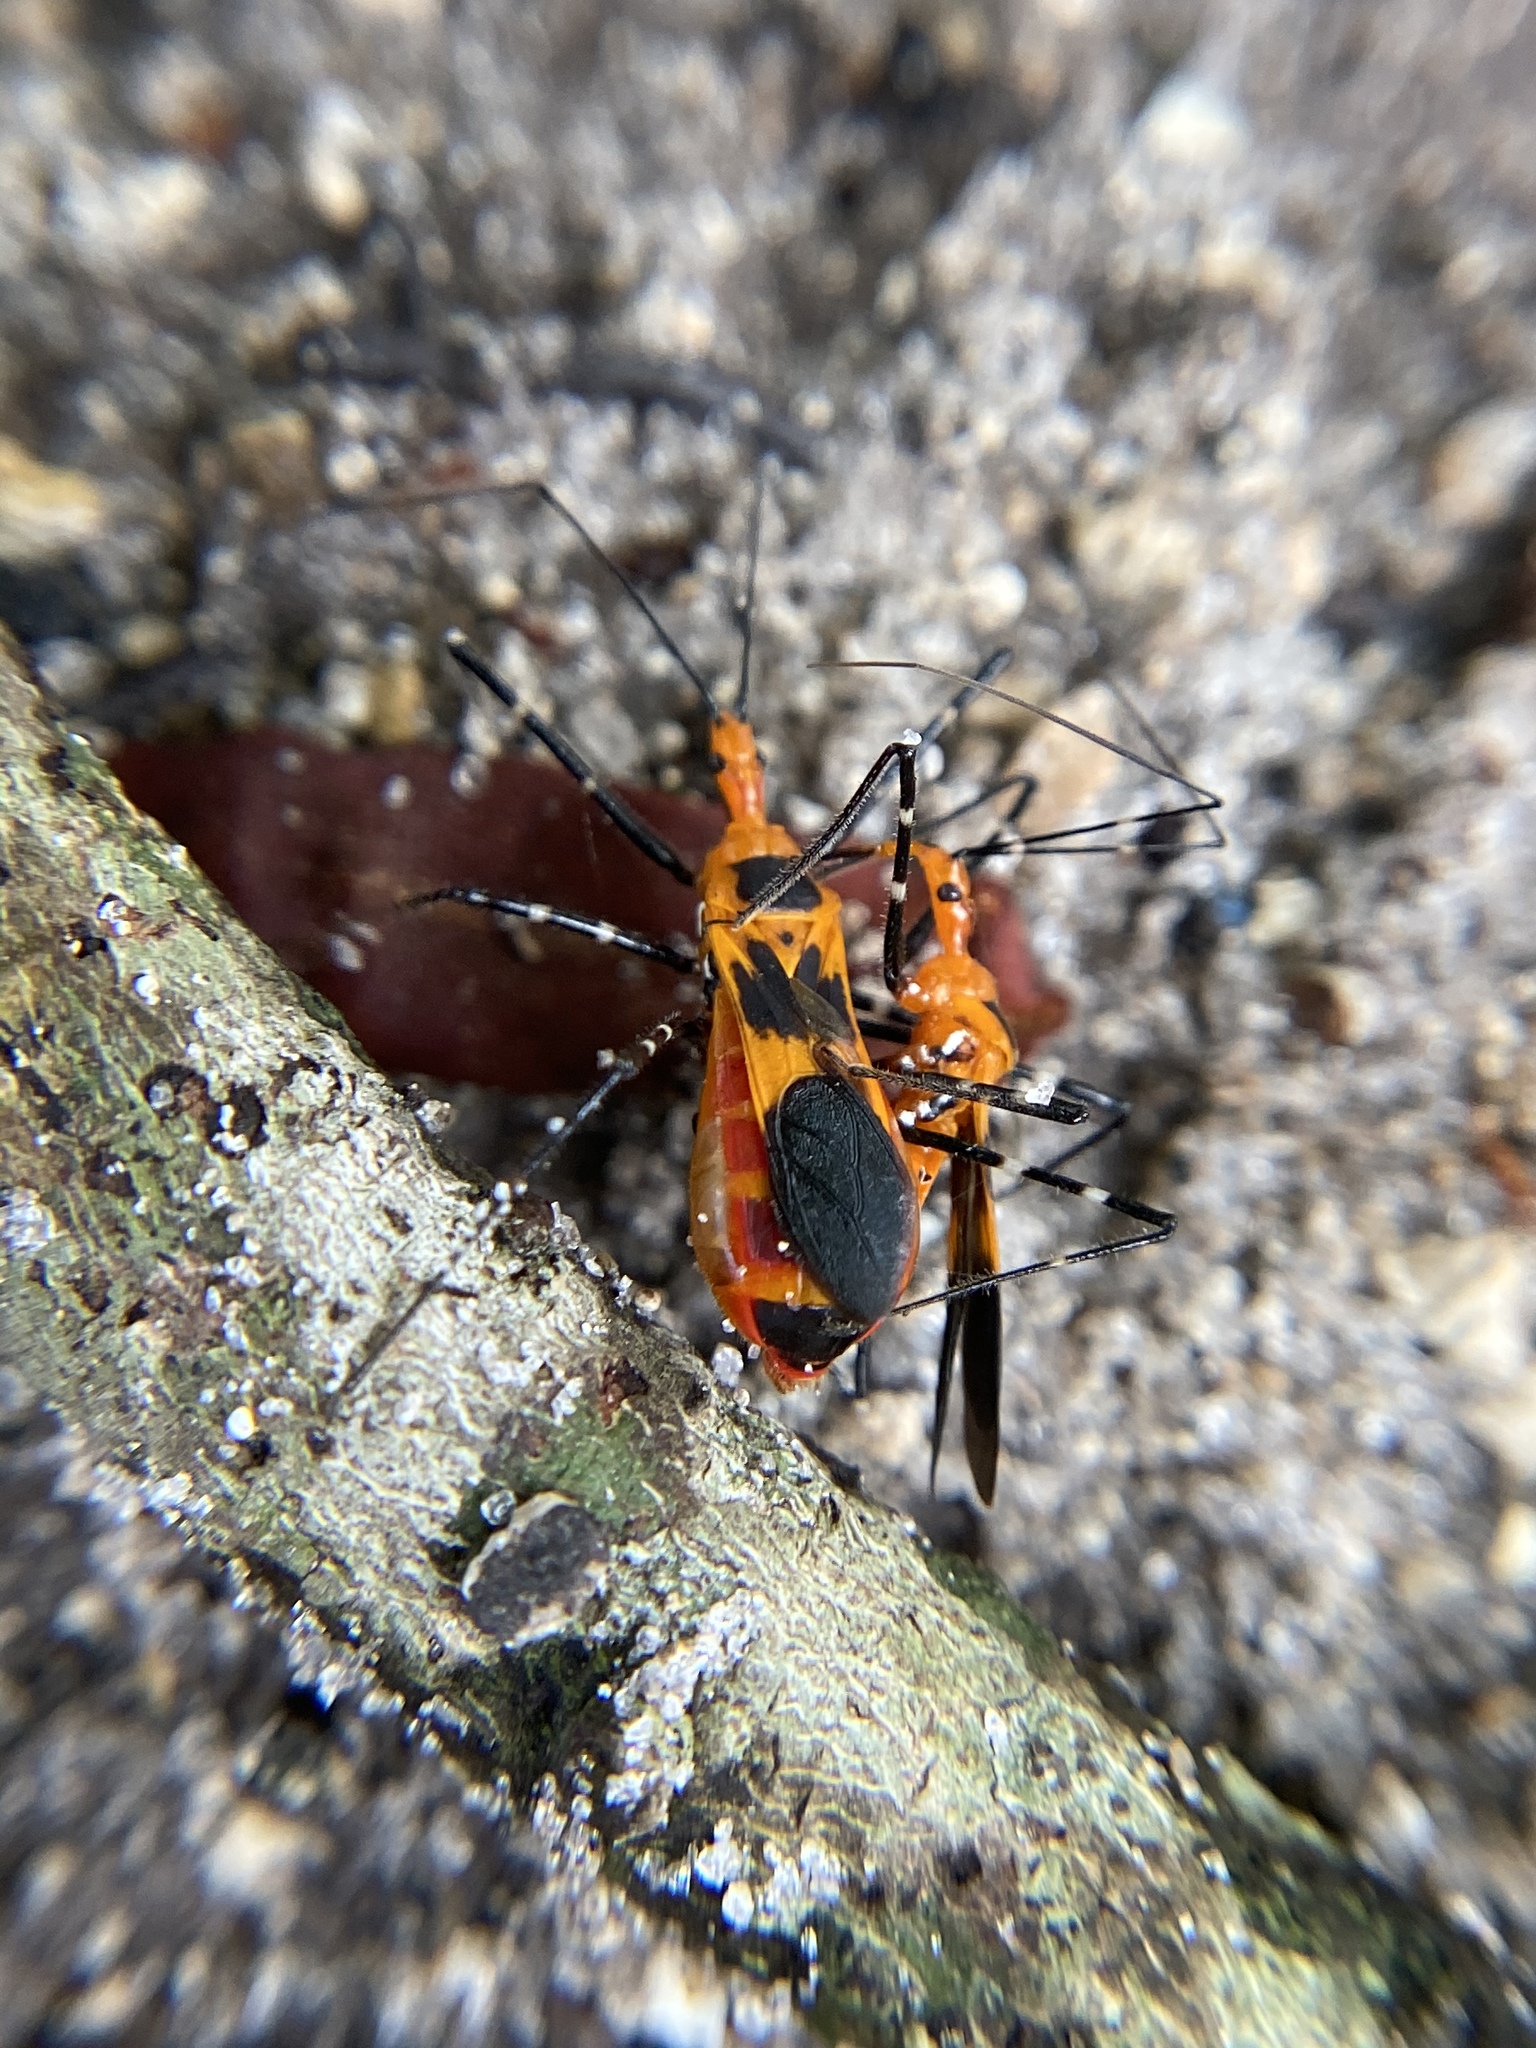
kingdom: Animalia
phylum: Arthropoda
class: Insecta
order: Hemiptera
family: Reduviidae
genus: Zelus
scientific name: Zelus longipes
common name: Milkweed assassin bug
